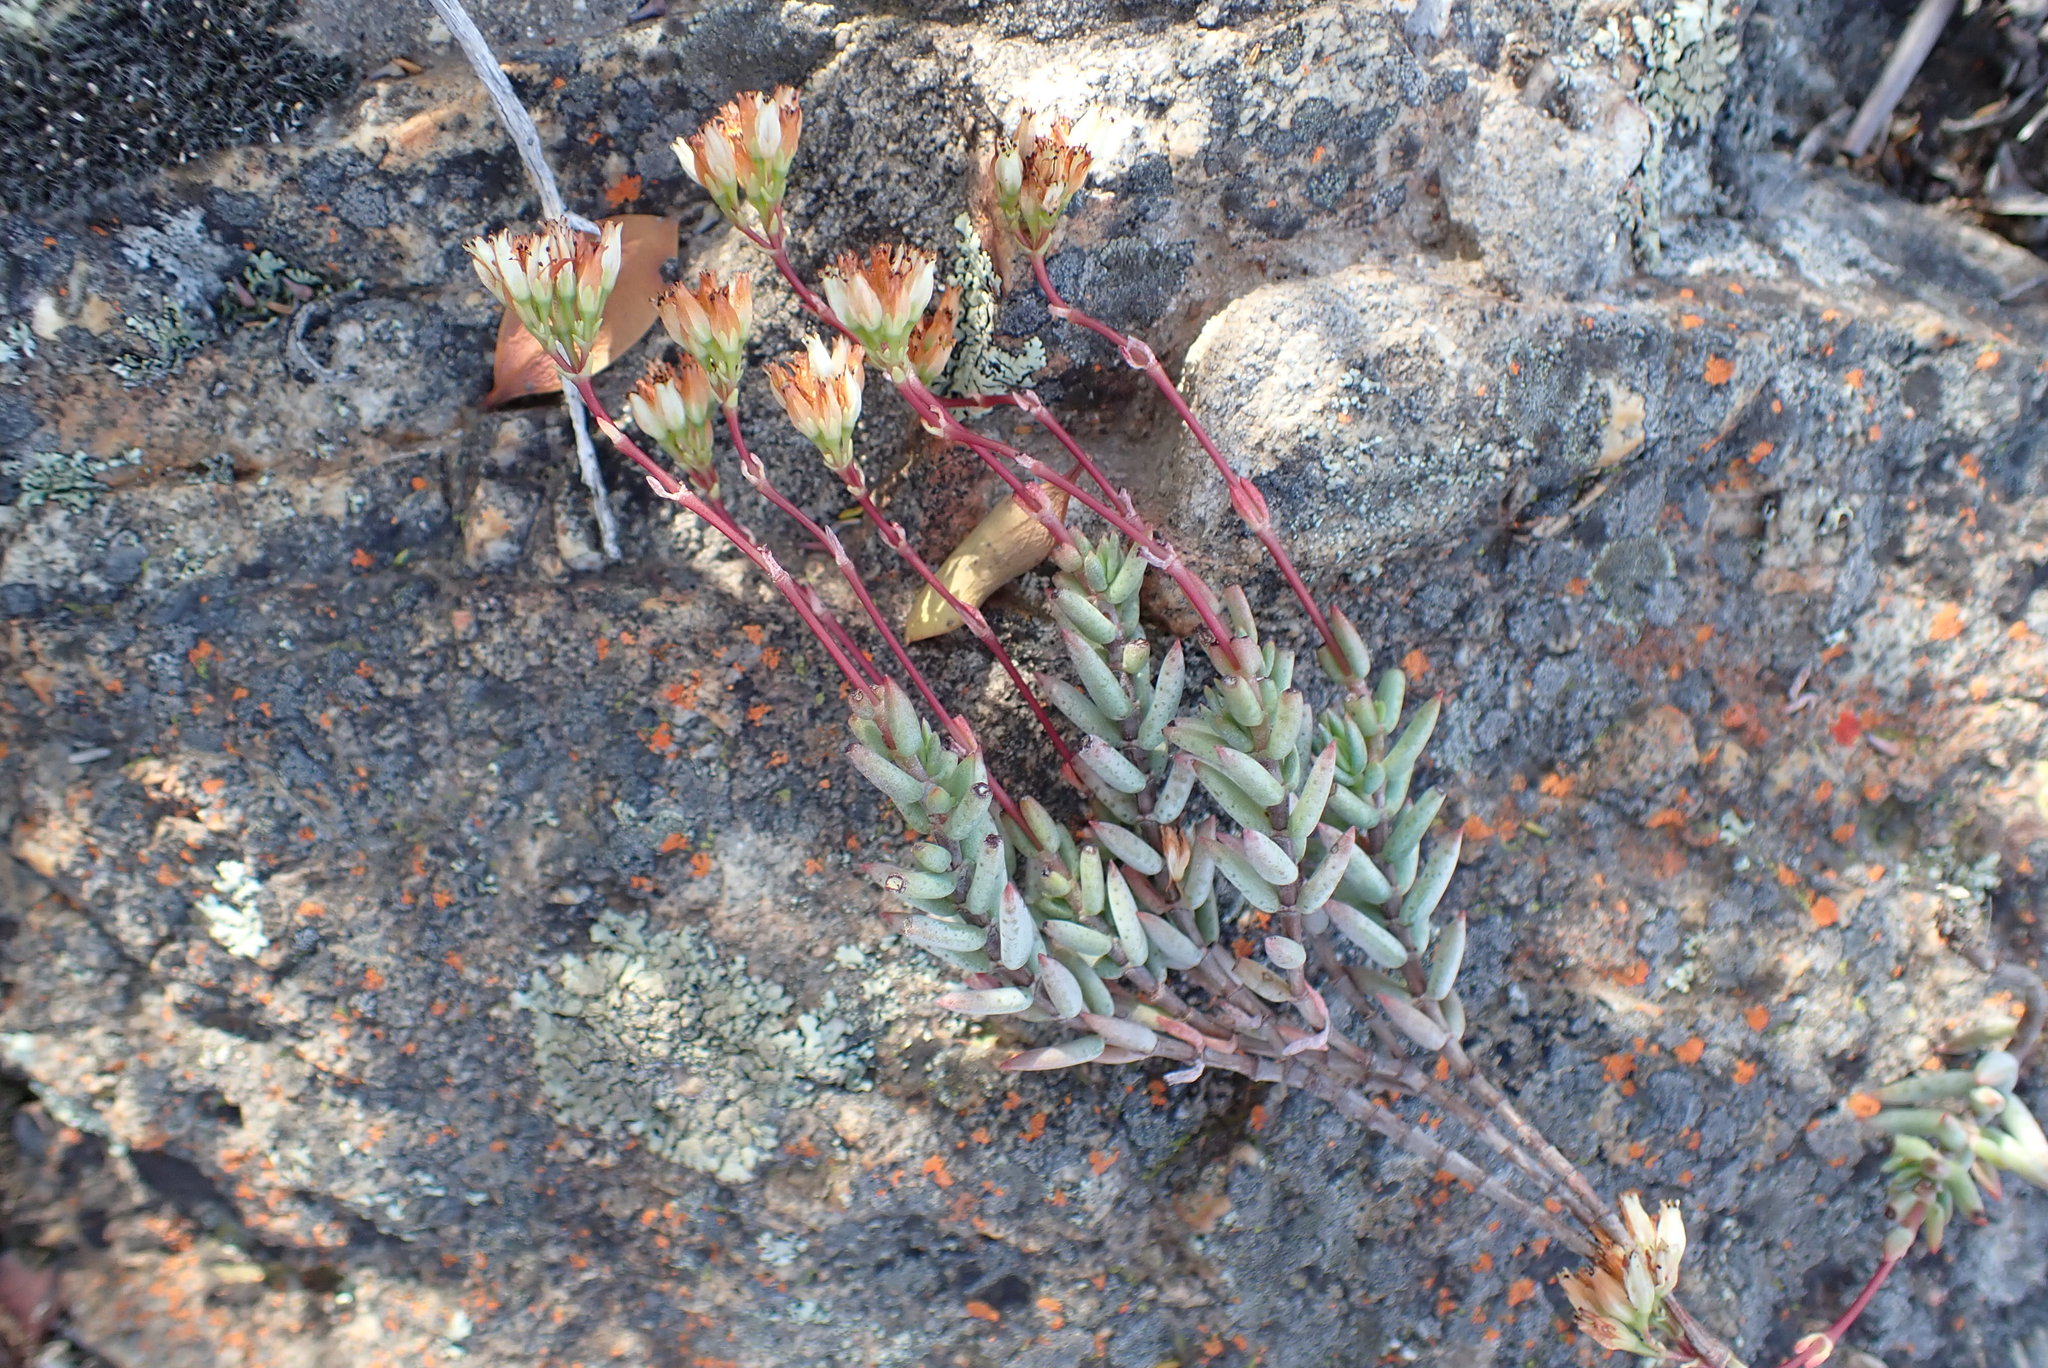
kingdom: Plantae
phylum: Tracheophyta
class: Magnoliopsida
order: Saxifragales
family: Crassulaceae
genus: Crassula
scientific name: Crassula biplanata
